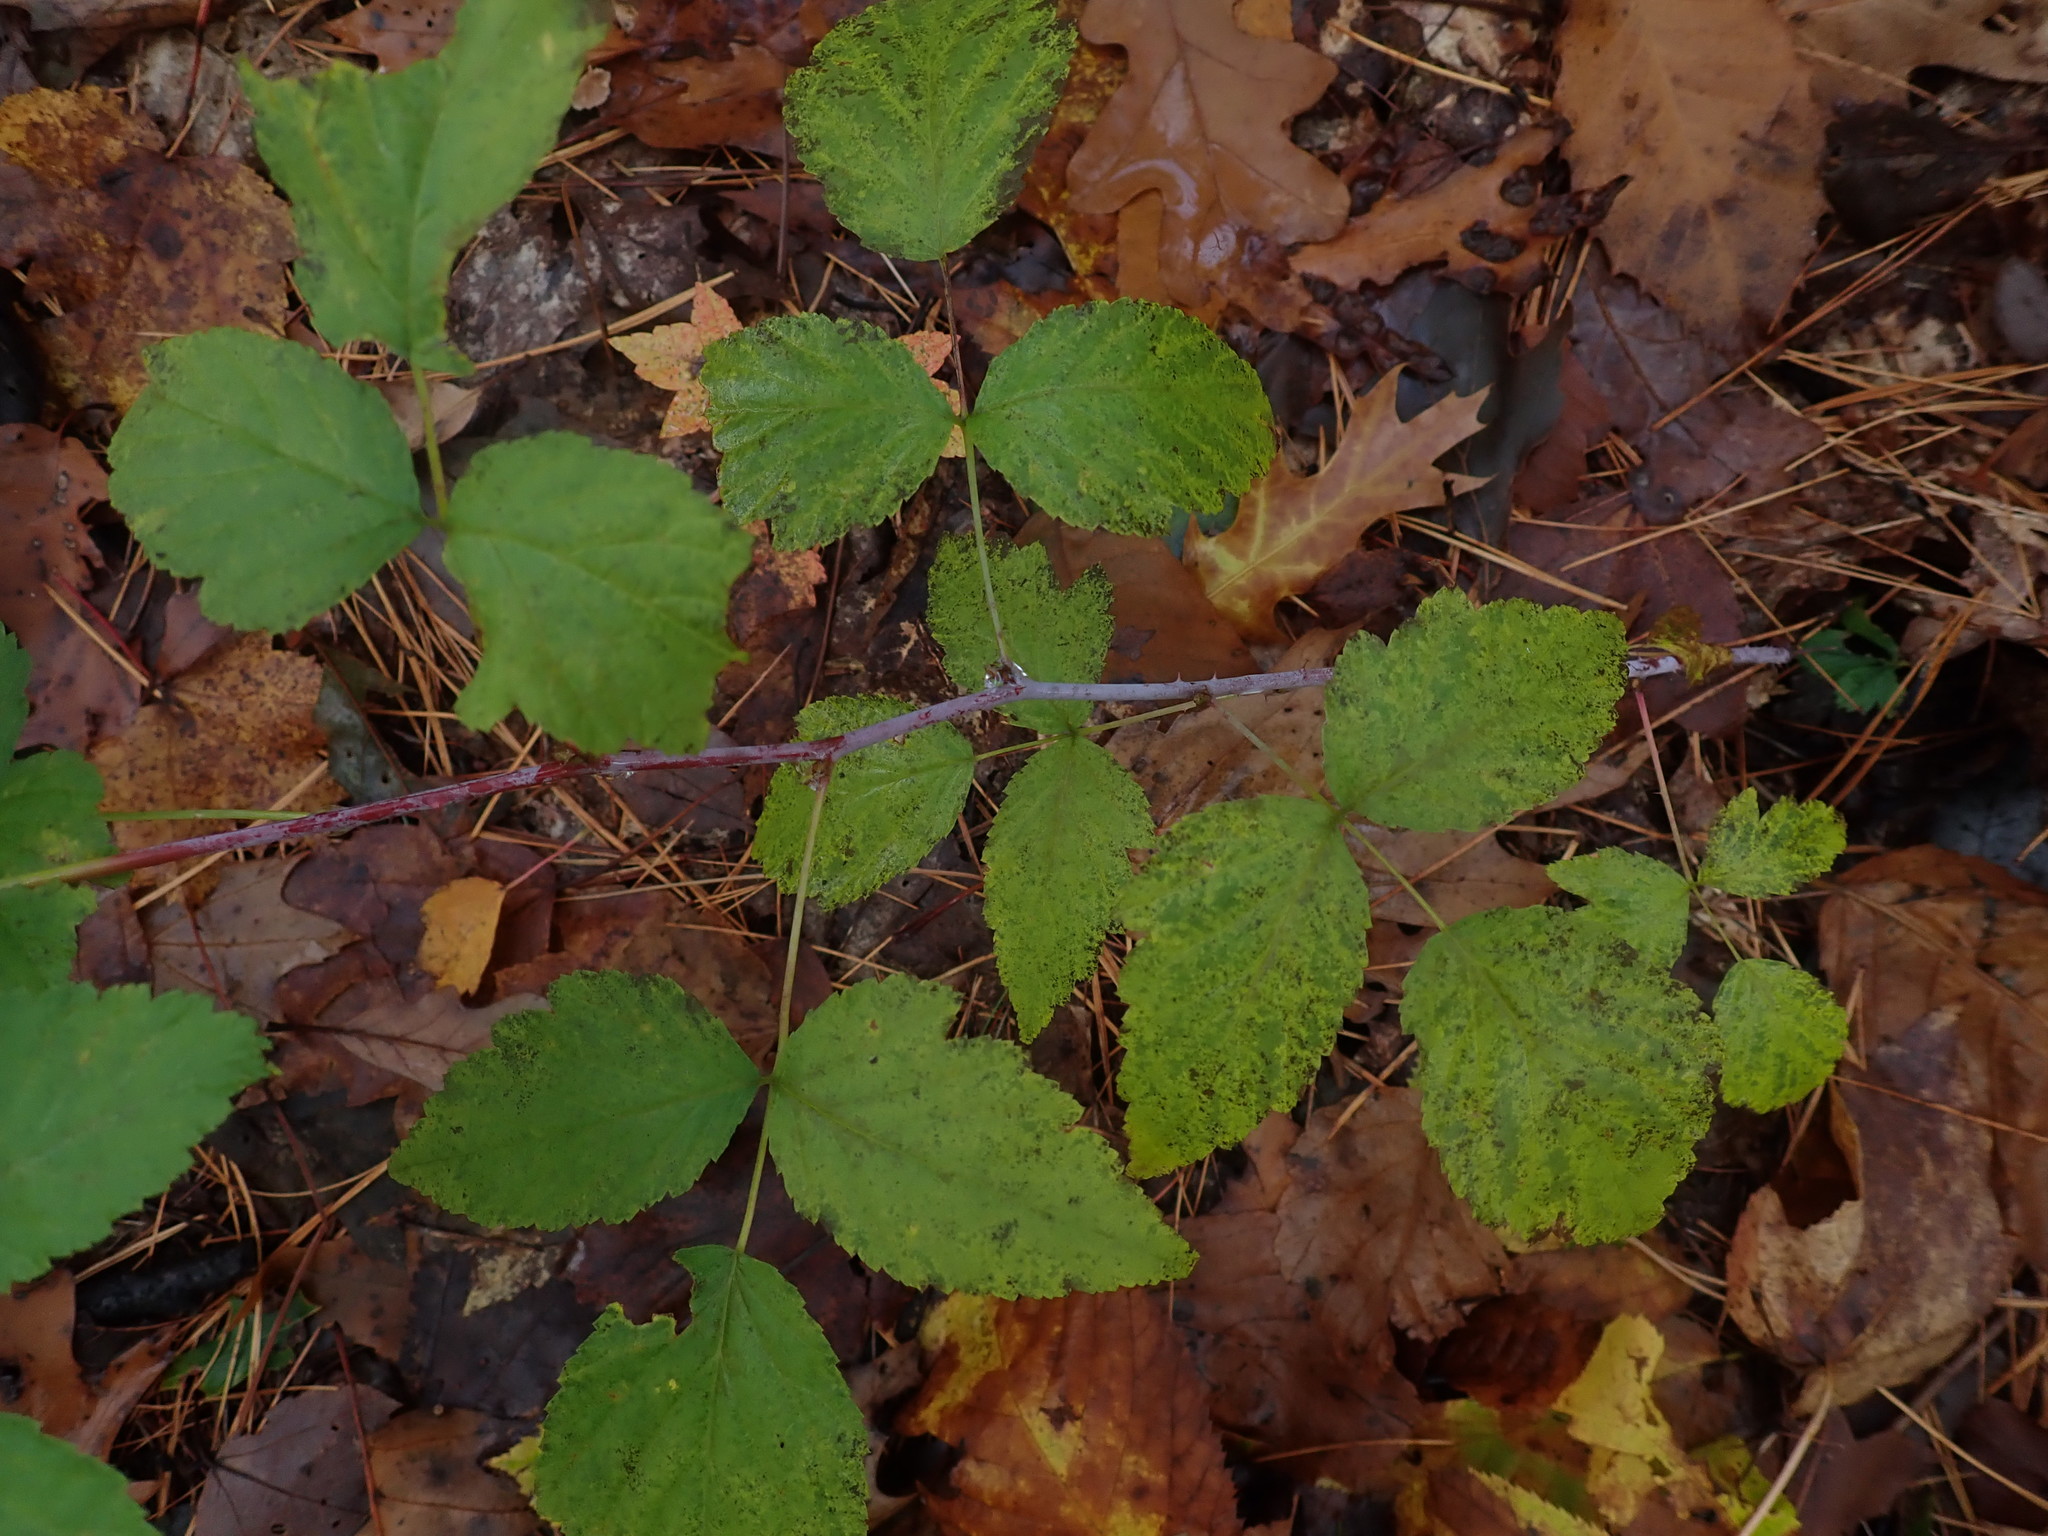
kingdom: Plantae
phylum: Tracheophyta
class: Magnoliopsida
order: Rosales
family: Rosaceae
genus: Rubus
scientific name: Rubus occidentalis
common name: Black raspberry
